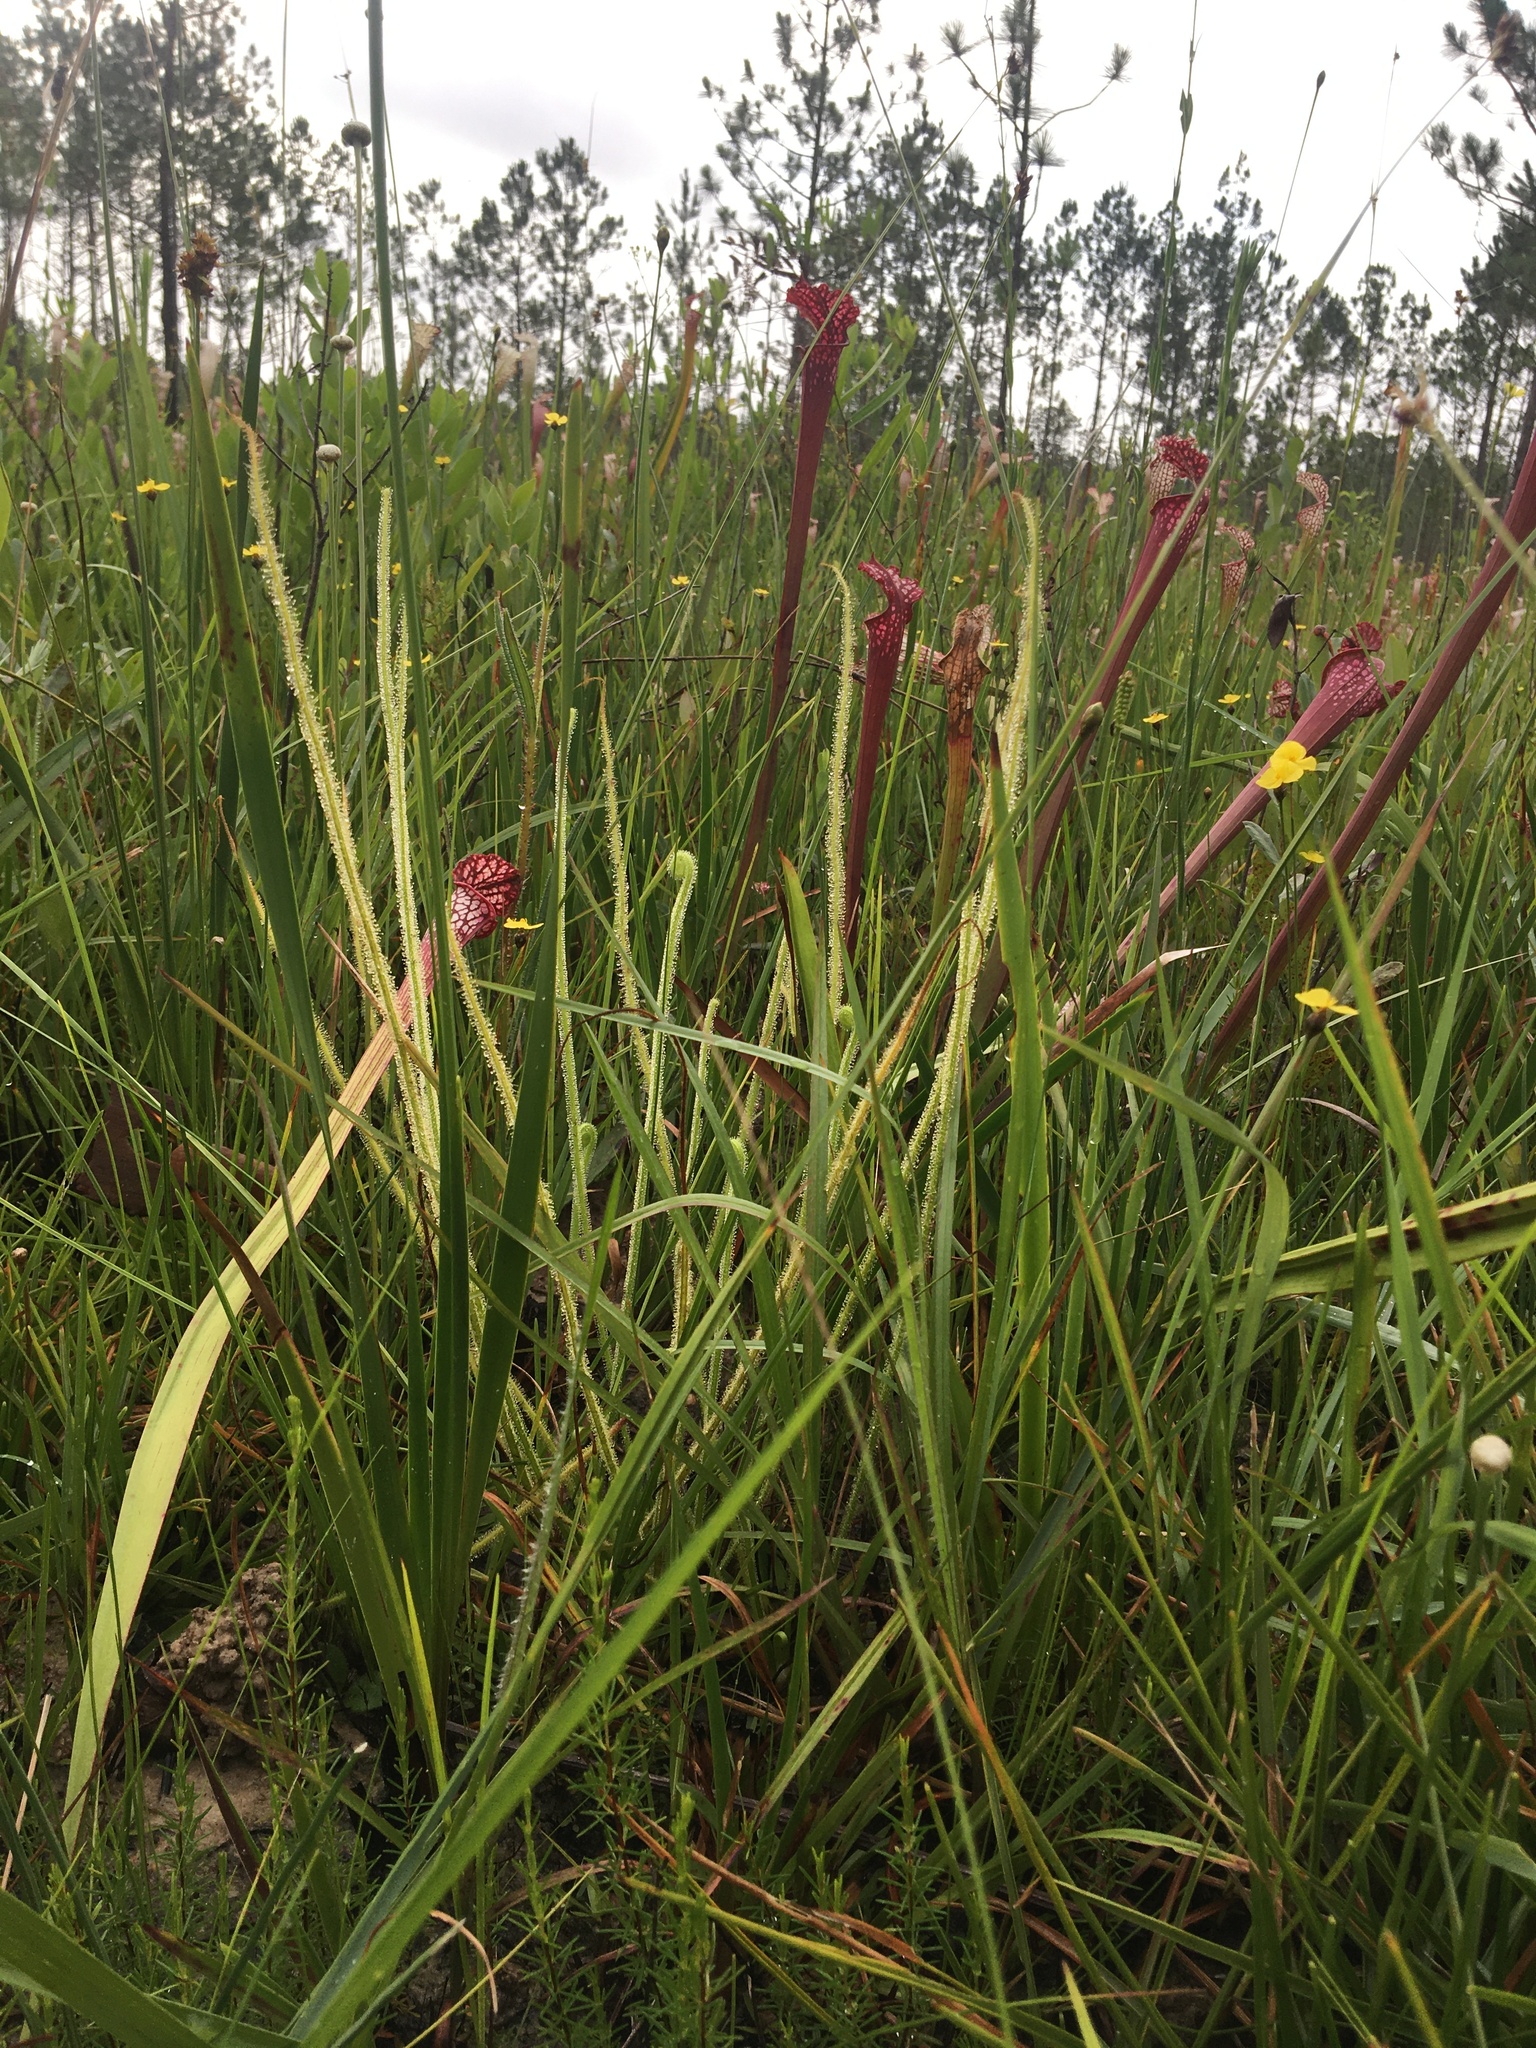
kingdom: Plantae
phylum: Tracheophyta
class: Magnoliopsida
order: Caryophyllales
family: Droseraceae
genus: Drosera
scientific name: Drosera filiformis
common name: Dew-thread
